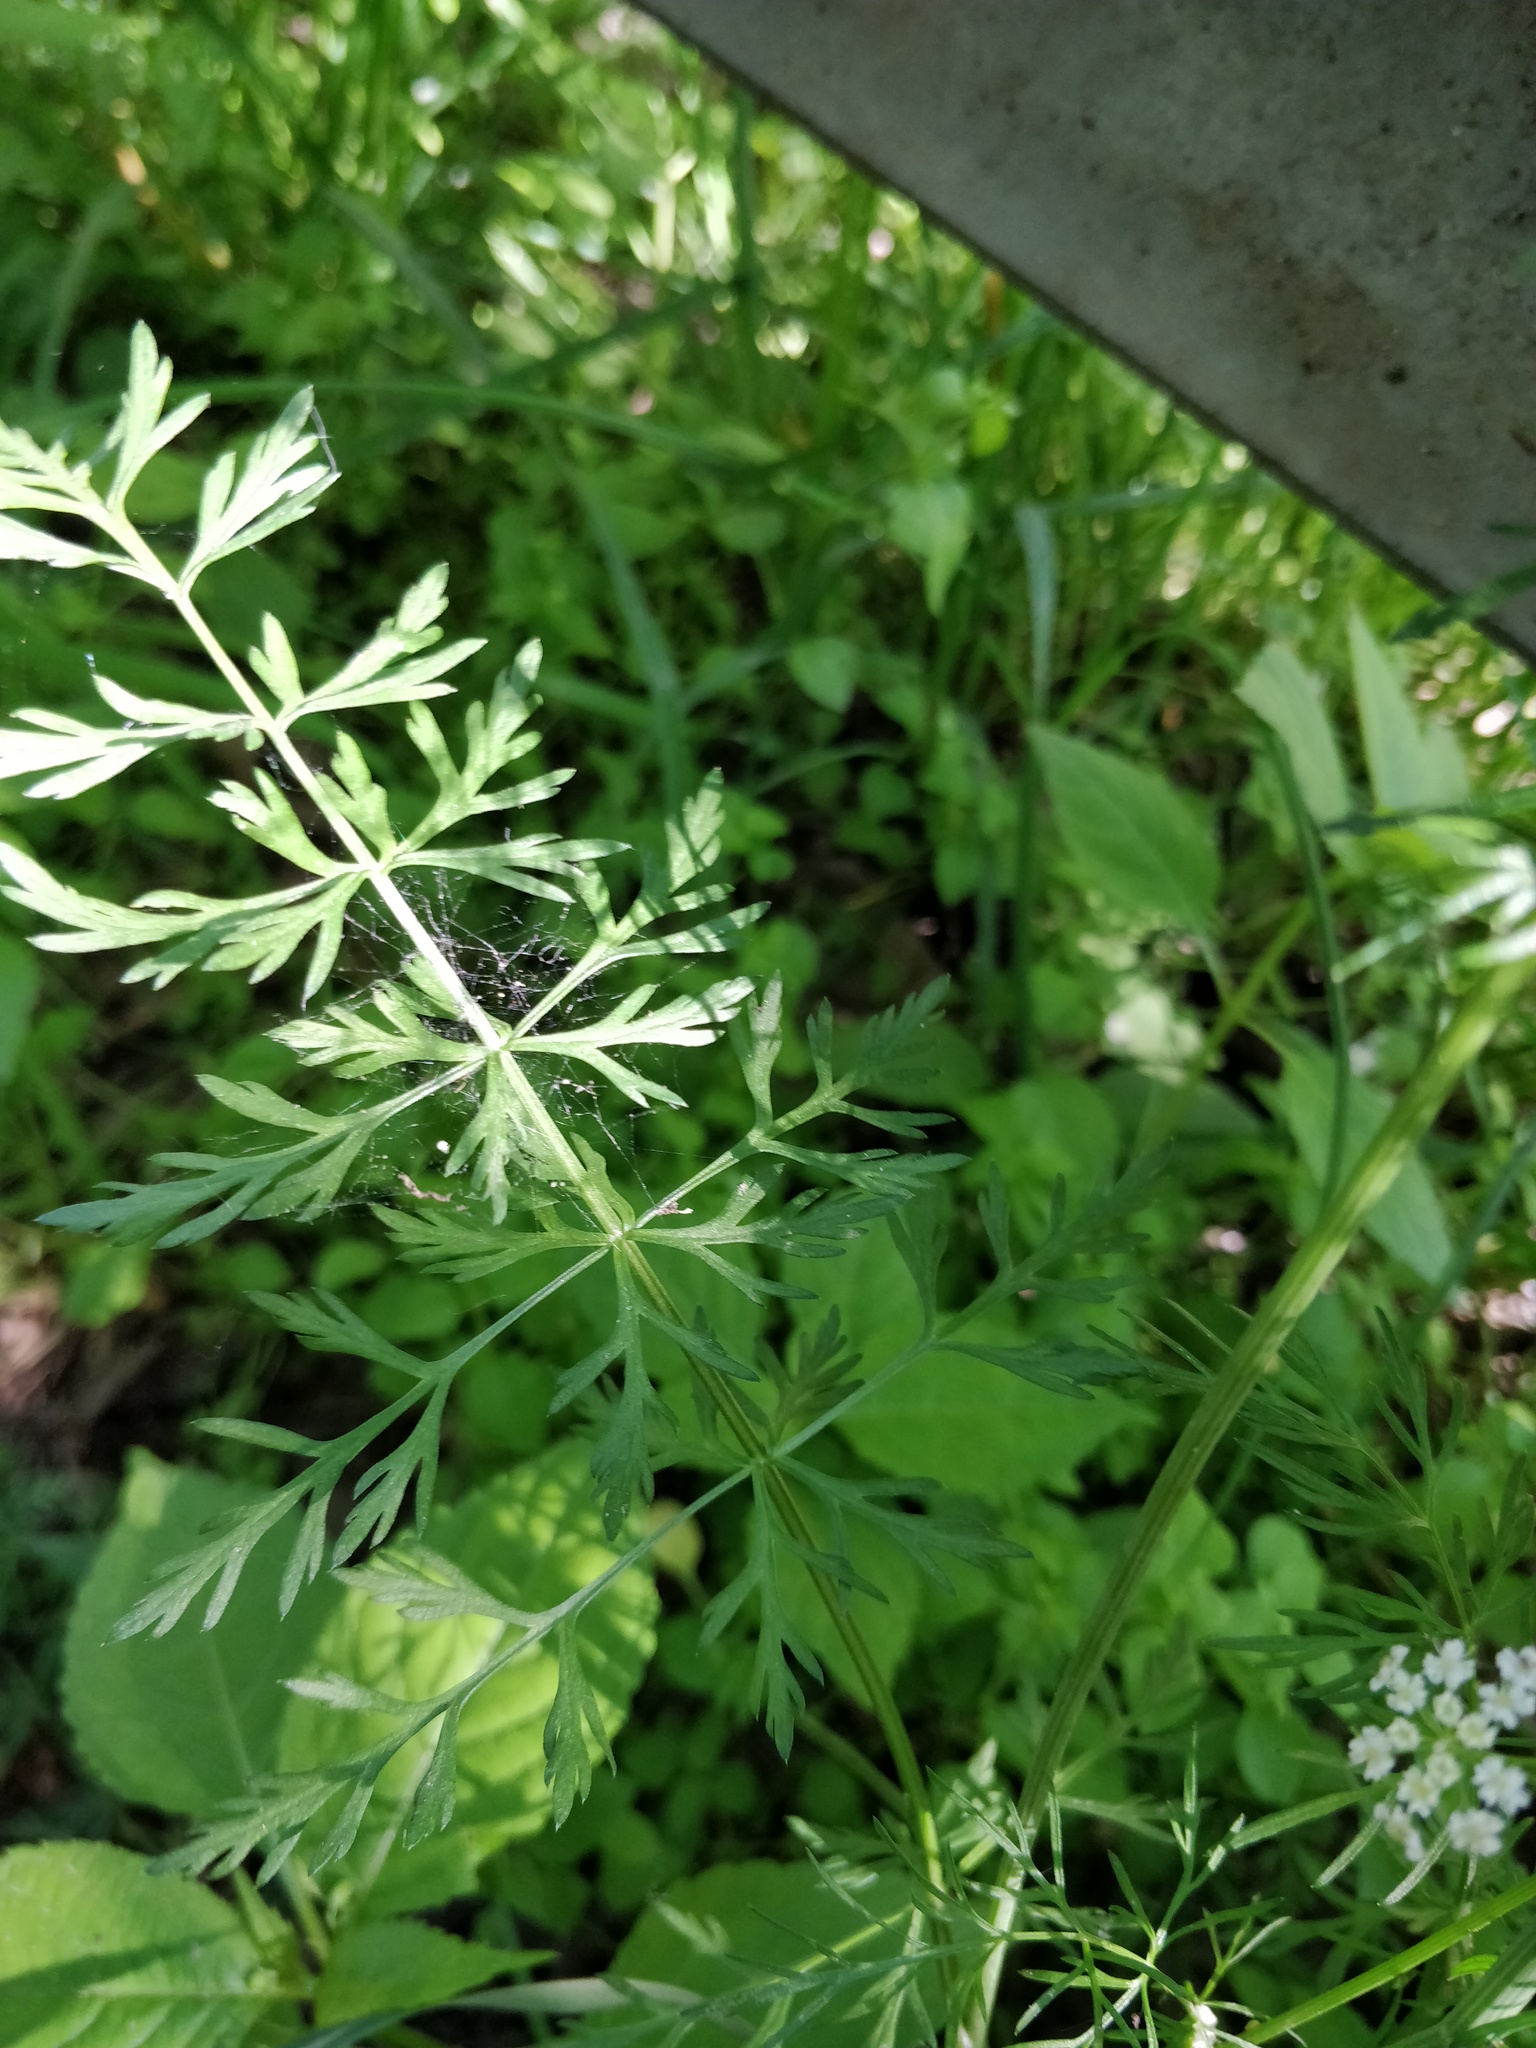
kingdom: Plantae
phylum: Tracheophyta
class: Magnoliopsida
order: Apiales
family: Apiaceae
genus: Carum
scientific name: Carum carvi
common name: Caraway
